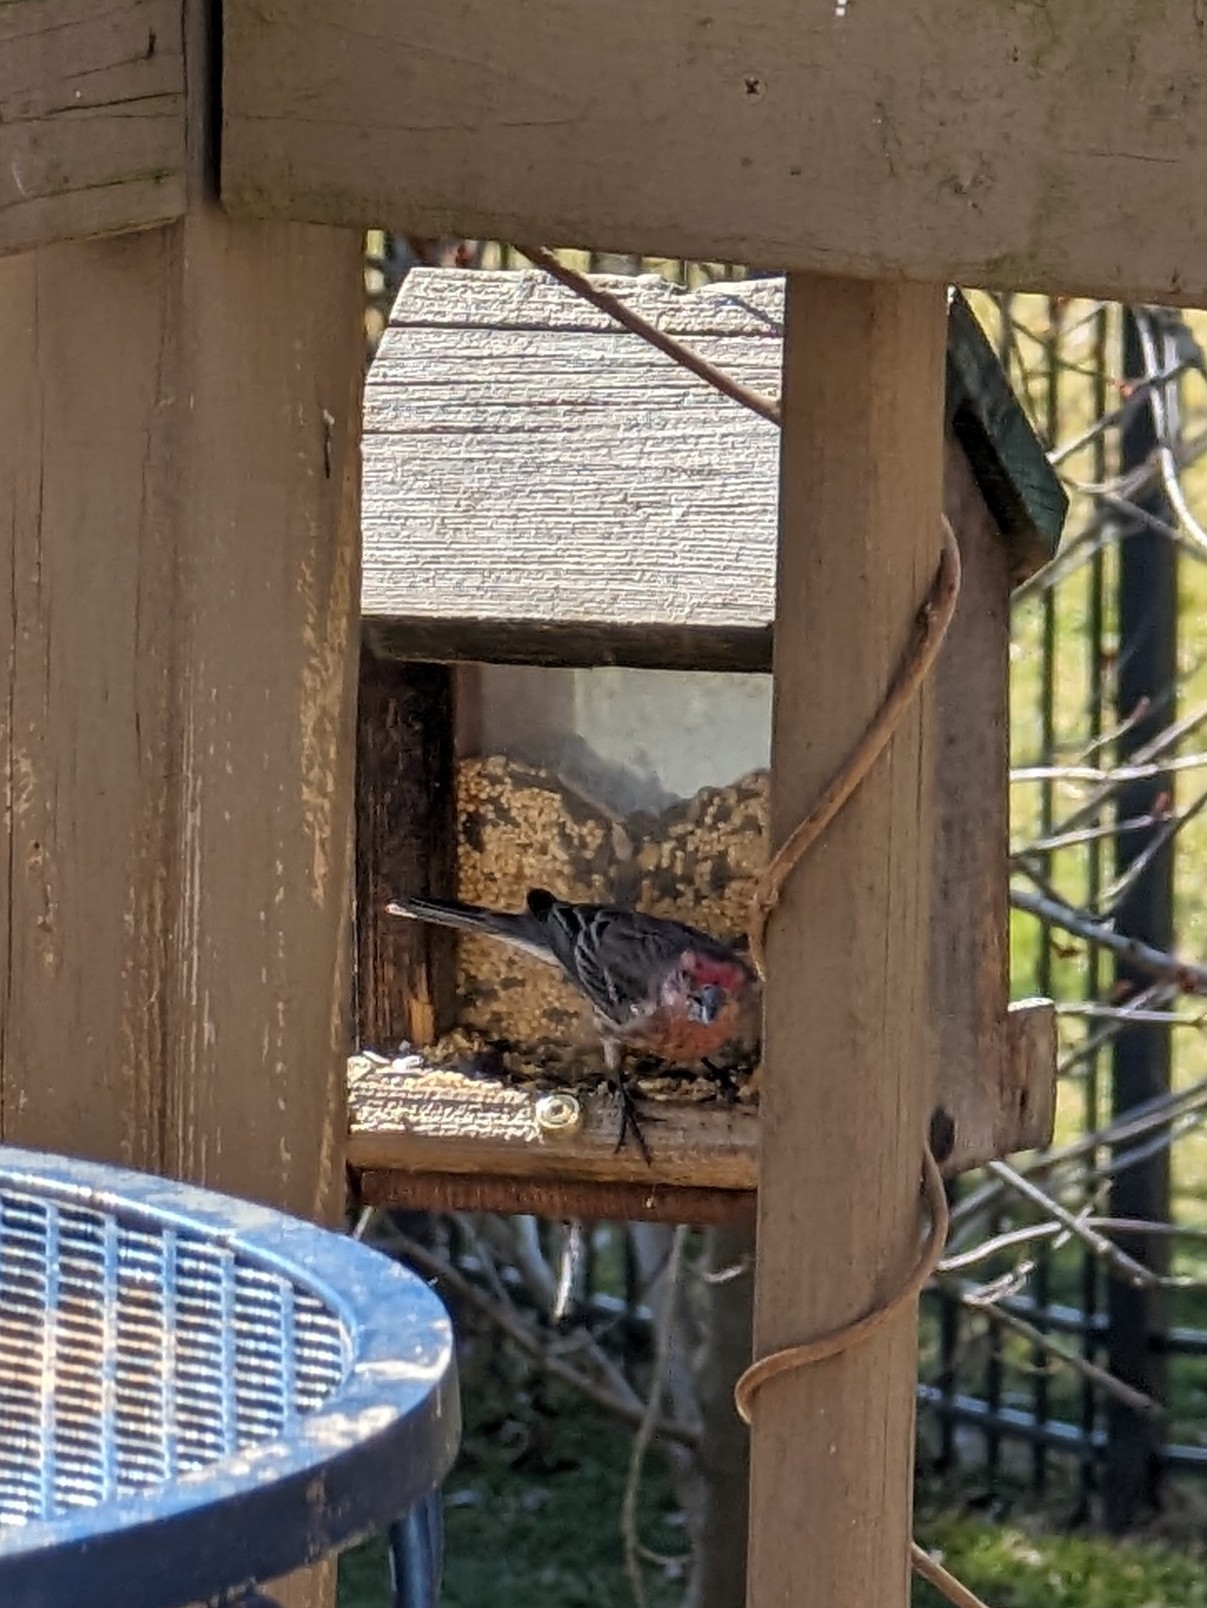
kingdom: Animalia
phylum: Chordata
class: Aves
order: Passeriformes
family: Fringillidae
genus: Haemorhous
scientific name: Haemorhous mexicanus
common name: House finch
